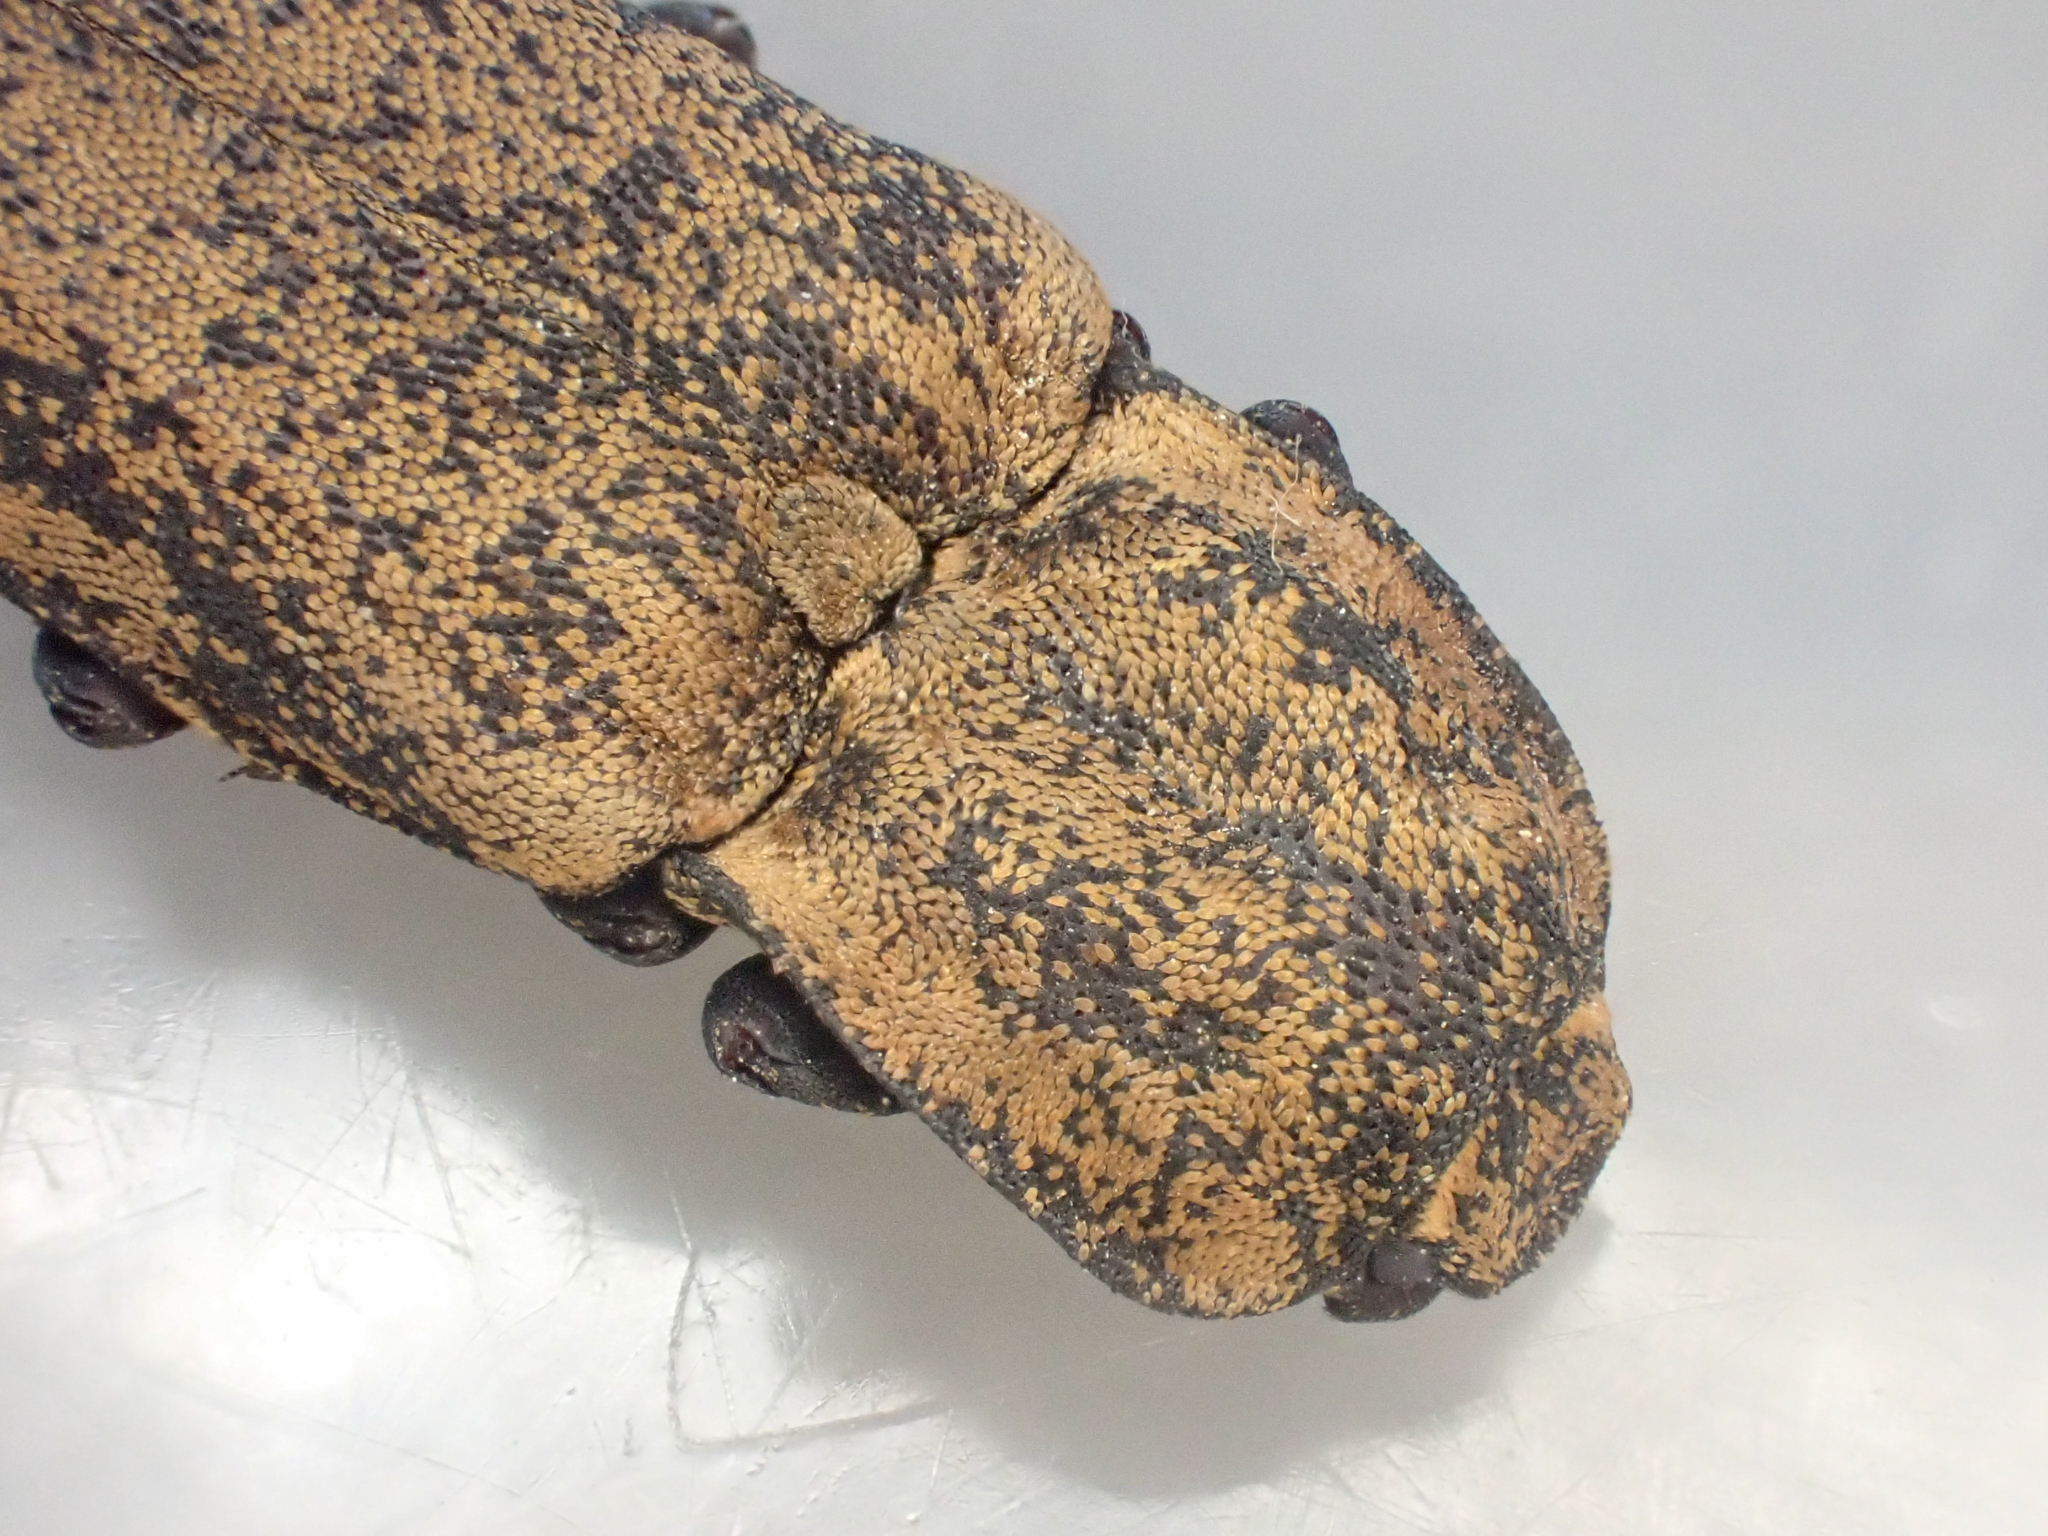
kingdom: Animalia
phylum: Arthropoda
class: Insecta
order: Coleoptera
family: Elateridae
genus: Danosoma
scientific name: Danosoma brevicorne
